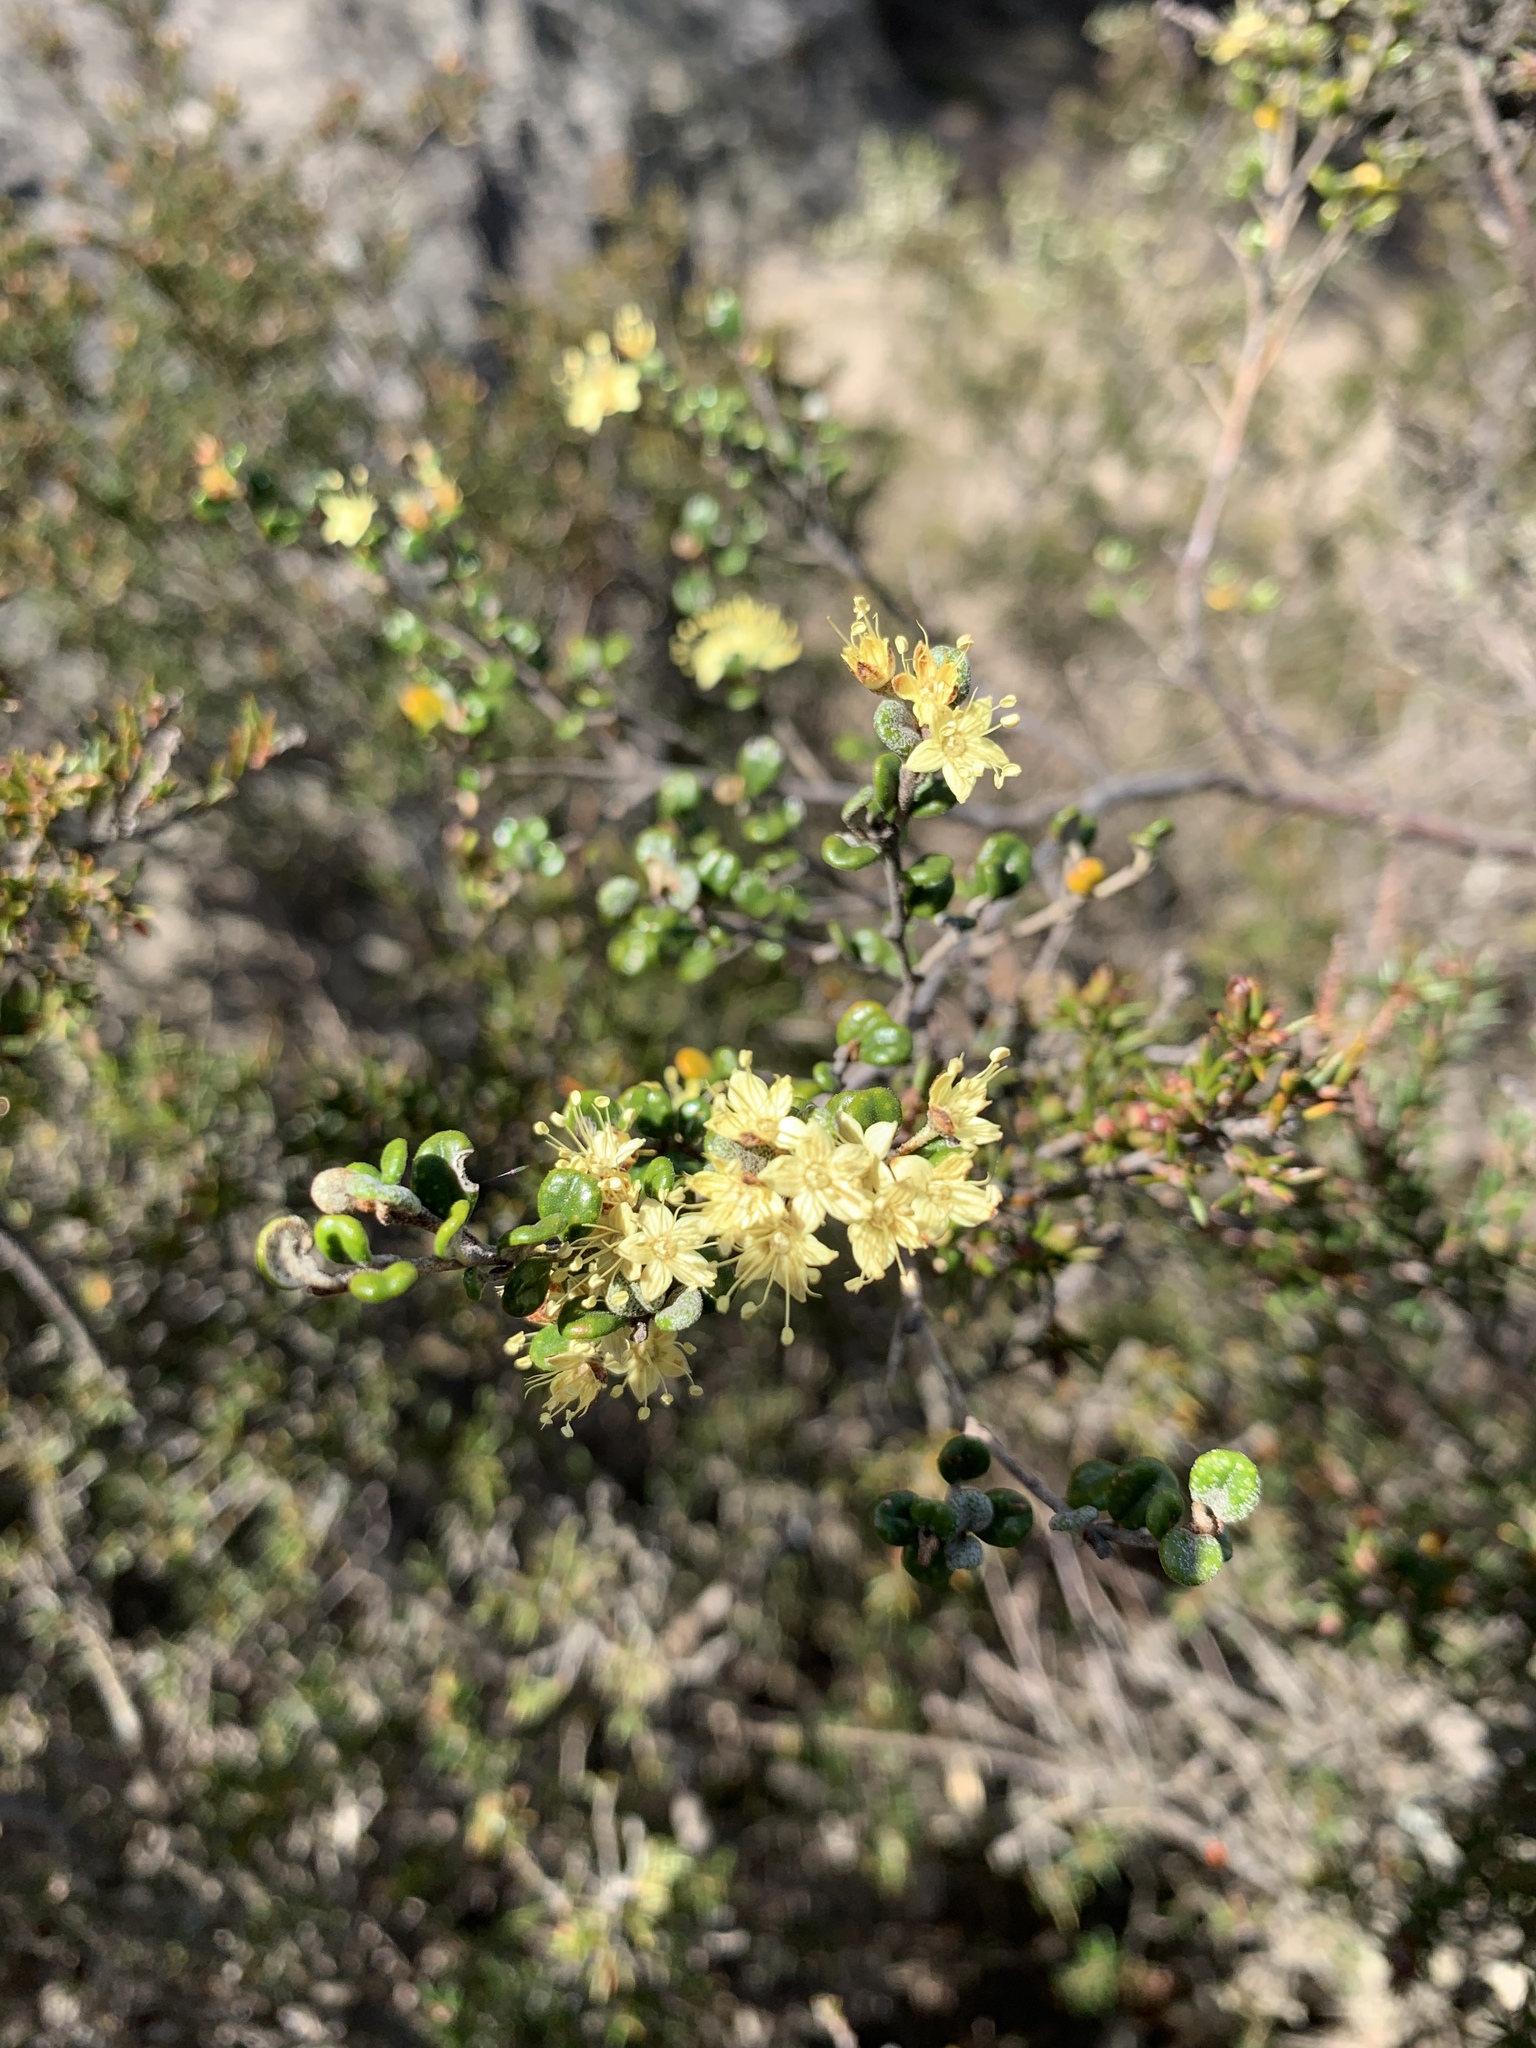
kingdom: Plantae
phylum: Tracheophyta
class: Magnoliopsida
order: Sapindales
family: Rutaceae
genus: Phebalium
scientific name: Phebalium squamulosum
